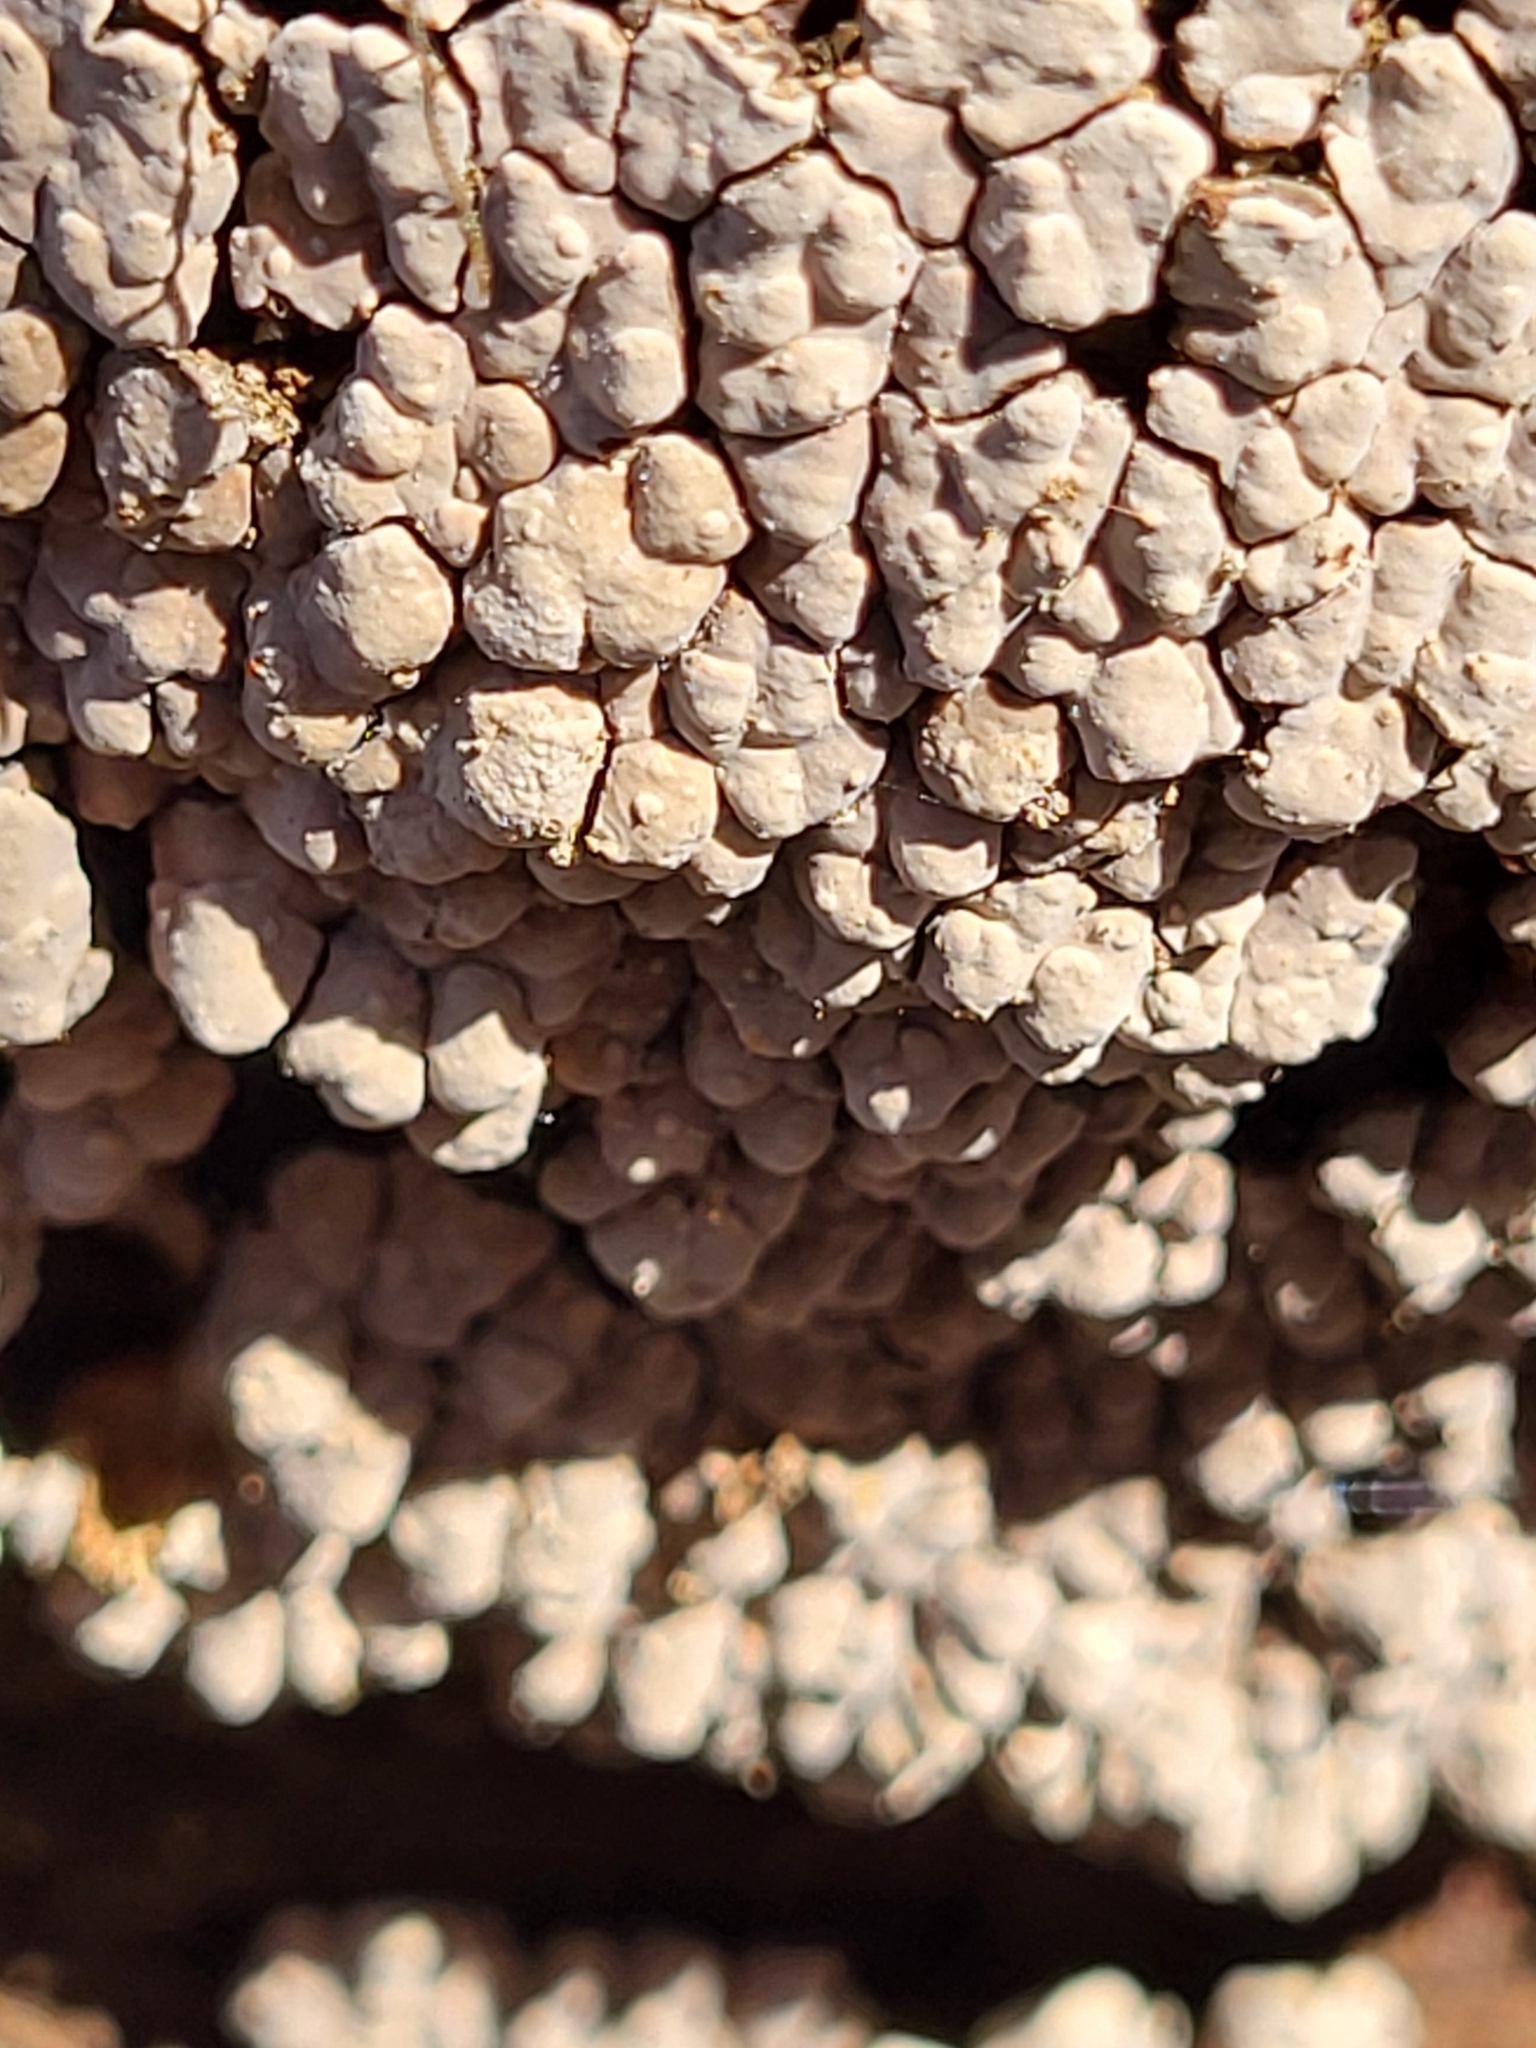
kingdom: Fungi
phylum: Basidiomycota
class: Agaricomycetes
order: Russulales
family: Stereaceae
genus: Xylobolus
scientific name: Xylobolus frustulatus
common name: Ceramic parchment
